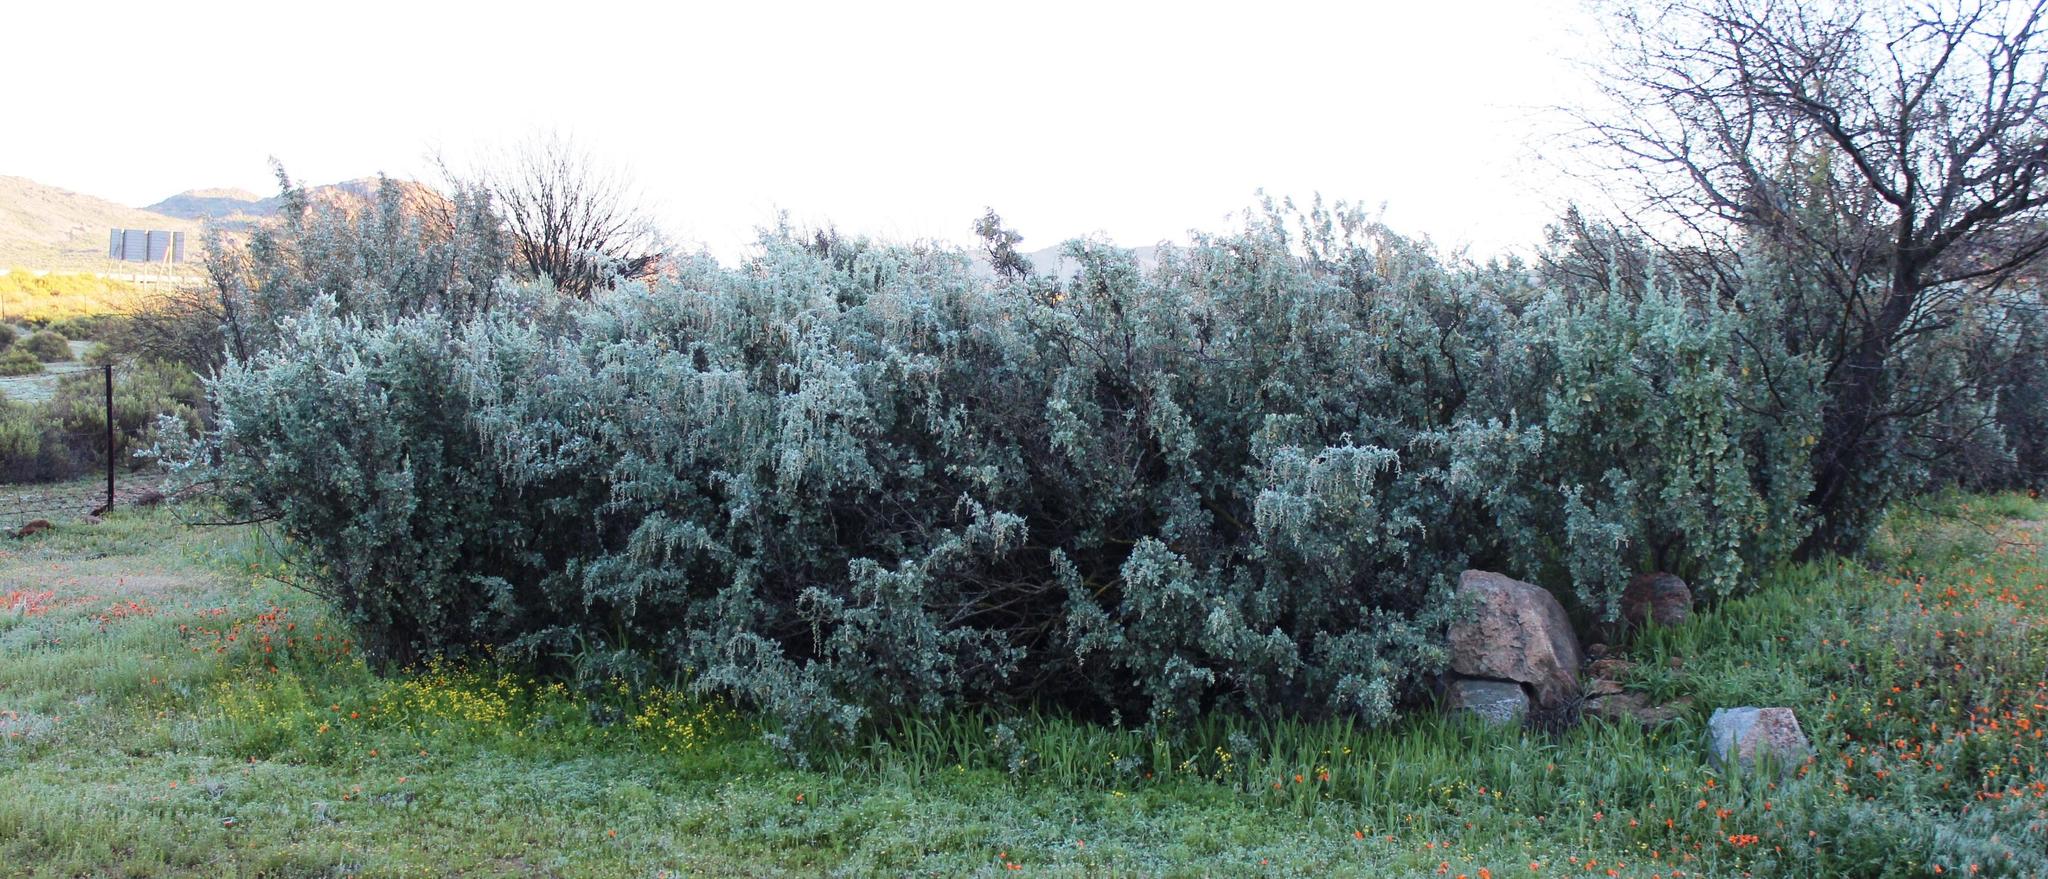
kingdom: Plantae
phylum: Tracheophyta
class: Magnoliopsida
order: Caryophyllales
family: Amaranthaceae
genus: Atriplex
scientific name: Atriplex nummularia
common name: Bluegreen saltbush
